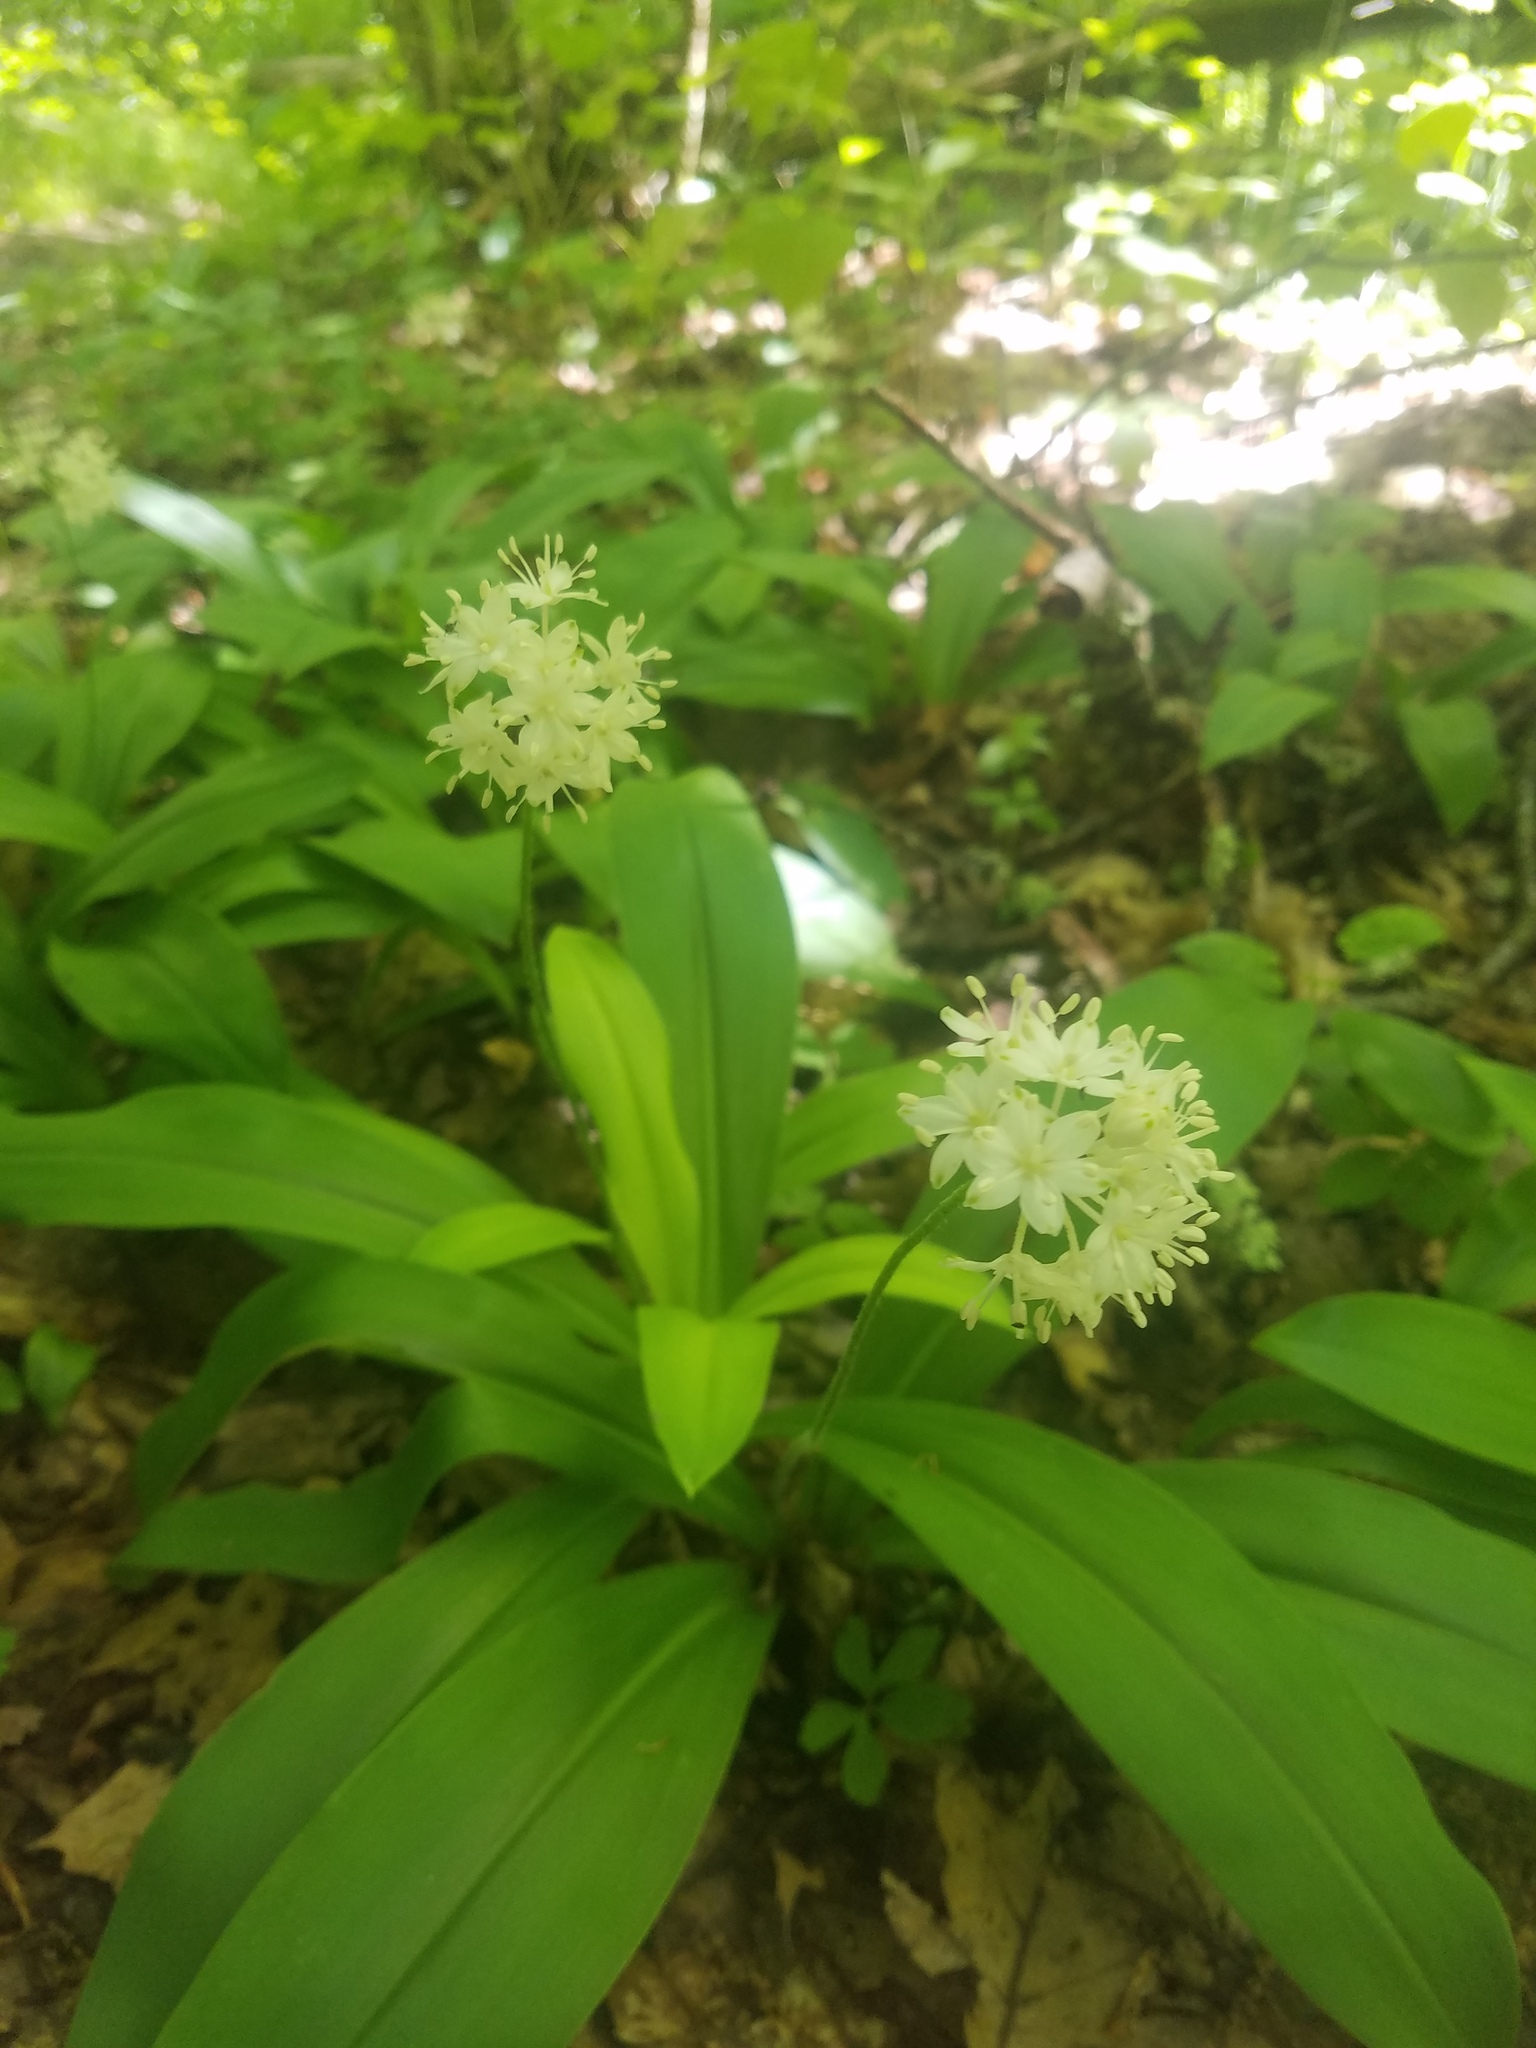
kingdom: Plantae
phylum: Tracheophyta
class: Liliopsida
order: Liliales
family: Liliaceae
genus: Clintonia
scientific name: Clintonia umbellulata
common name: Speckle wood-lily
